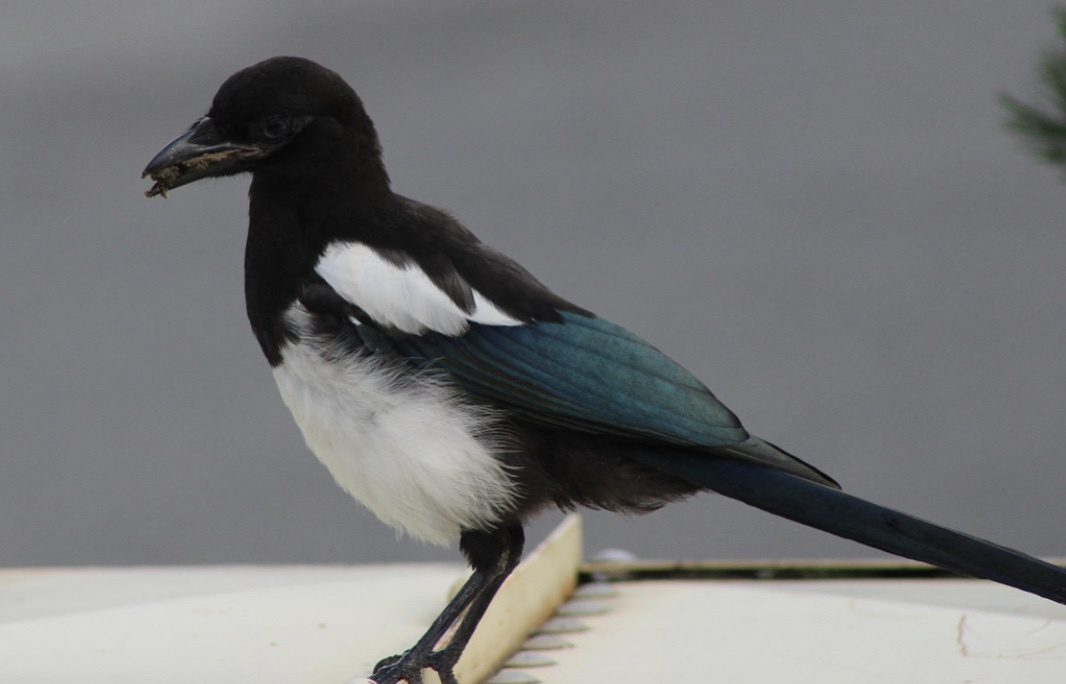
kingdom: Animalia
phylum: Chordata
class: Aves
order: Passeriformes
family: Corvidae
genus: Pica
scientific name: Pica hudsonia
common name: Black-billed magpie
